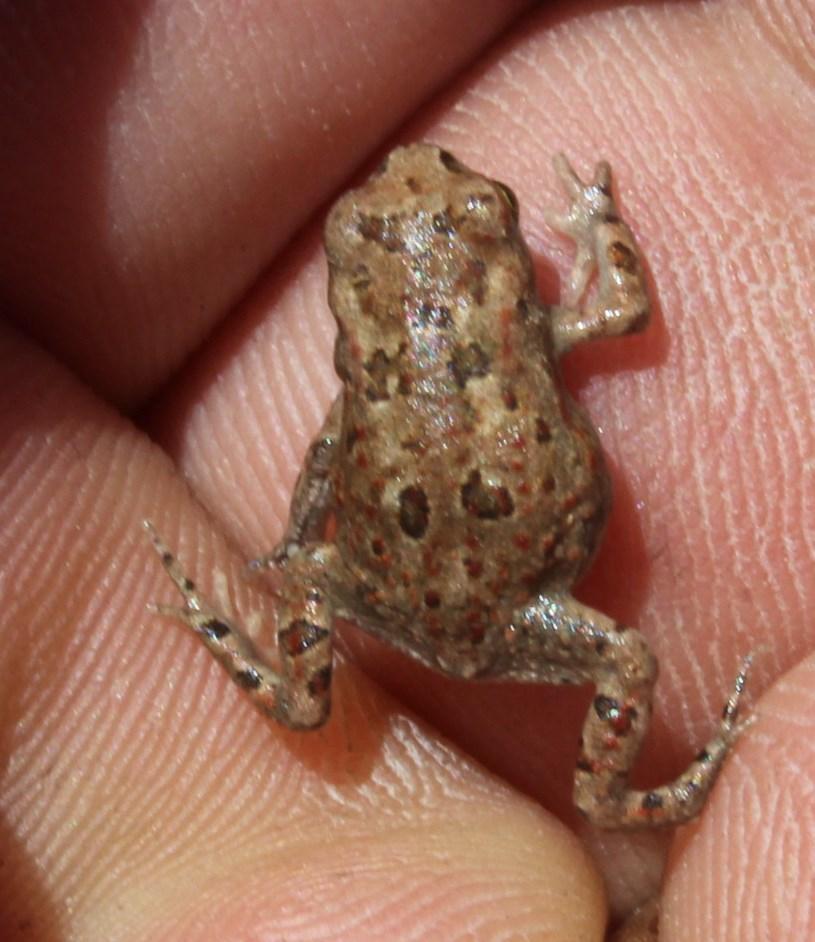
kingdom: Animalia
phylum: Chordata
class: Amphibia
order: Anura
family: Bufonidae
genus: Vandijkophrynus
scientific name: Vandijkophrynus gariepensis
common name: Gariep toad
